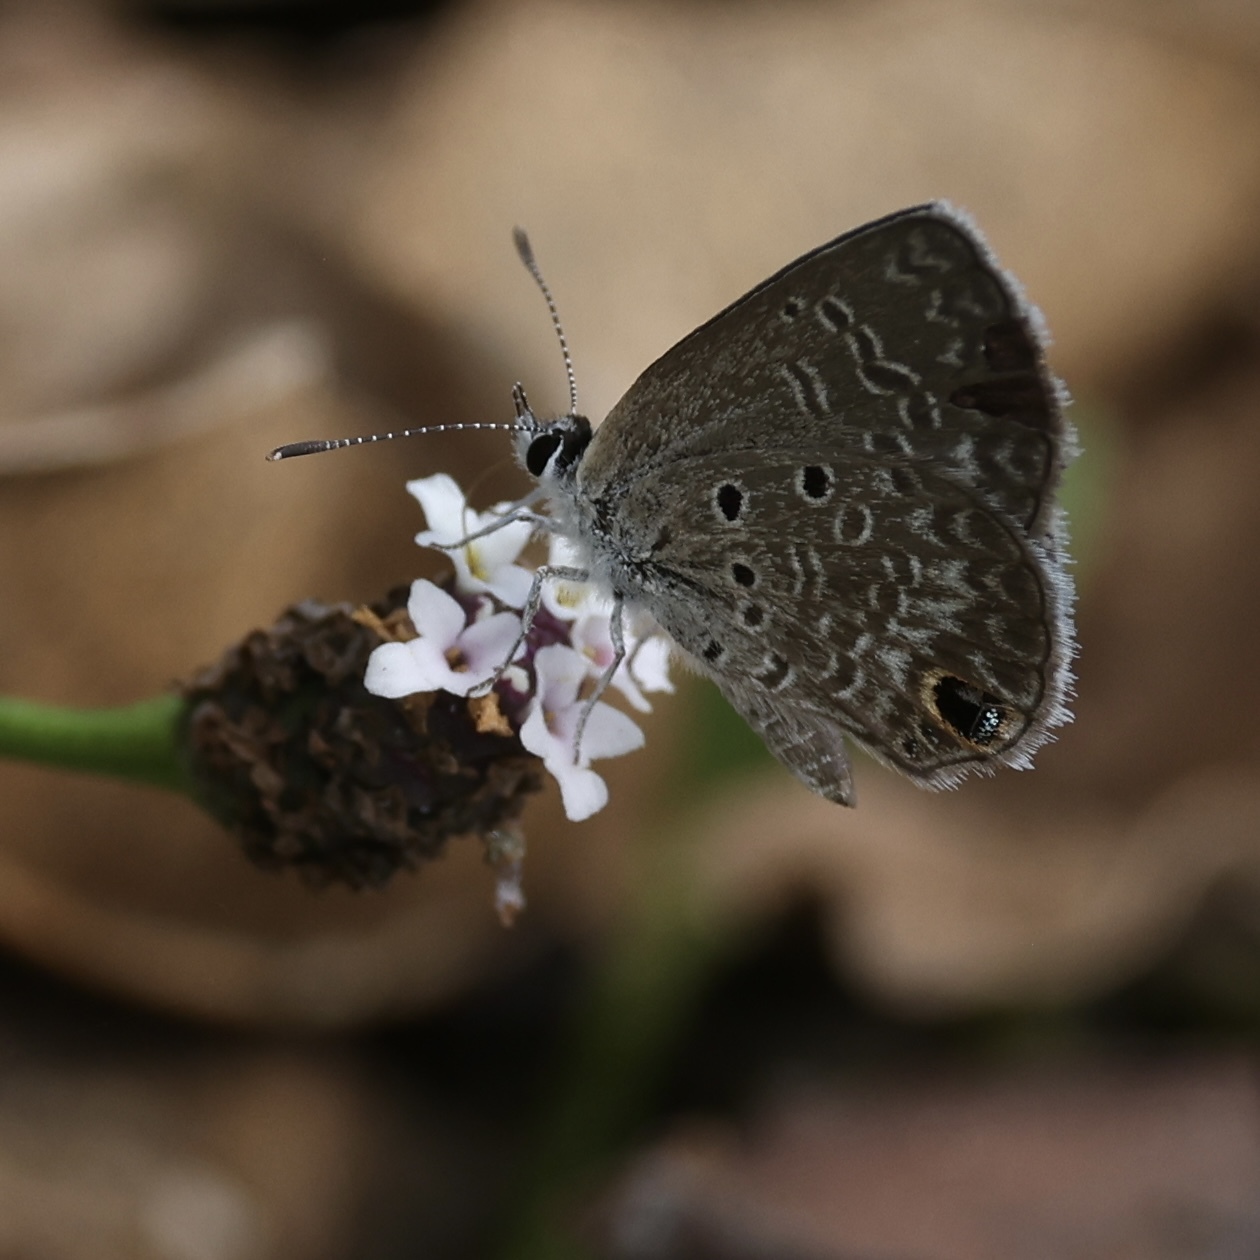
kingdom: Animalia
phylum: Arthropoda
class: Insecta
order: Lepidoptera
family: Lycaenidae
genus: Hemiargus
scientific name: Hemiargus ceraunus
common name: Ceraunus blue
